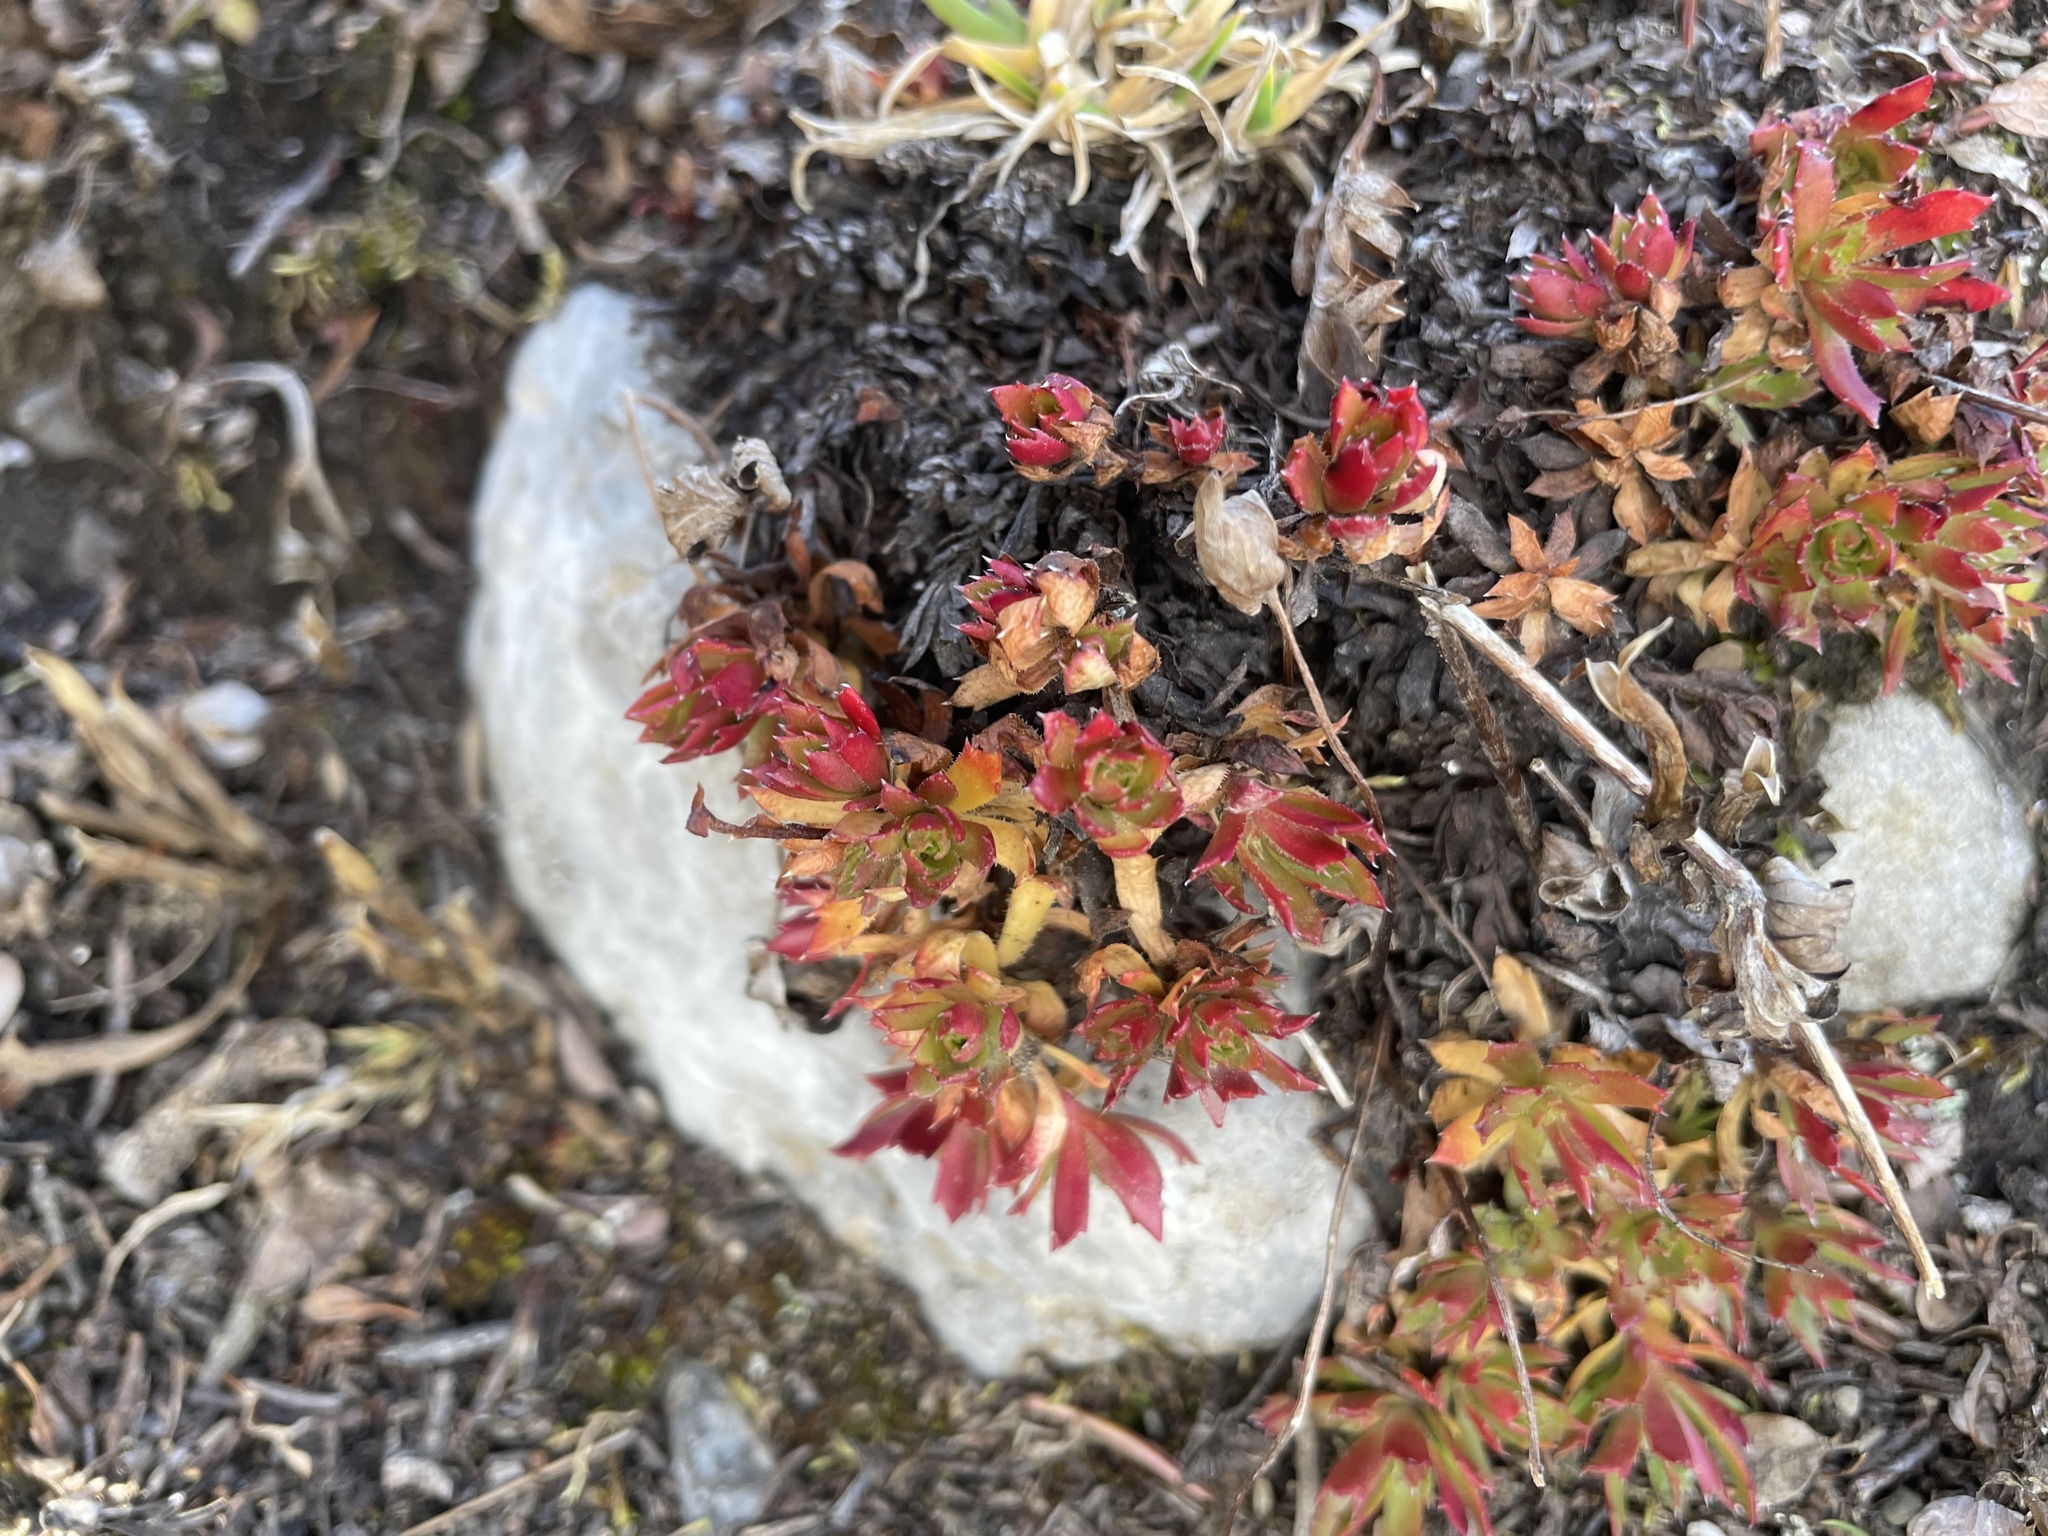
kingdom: Plantae
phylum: Tracheophyta
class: Magnoliopsida
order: Saxifragales
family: Saxifragaceae
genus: Saxifraga
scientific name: Saxifraga tricuspidata
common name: Prickly saxifrage
